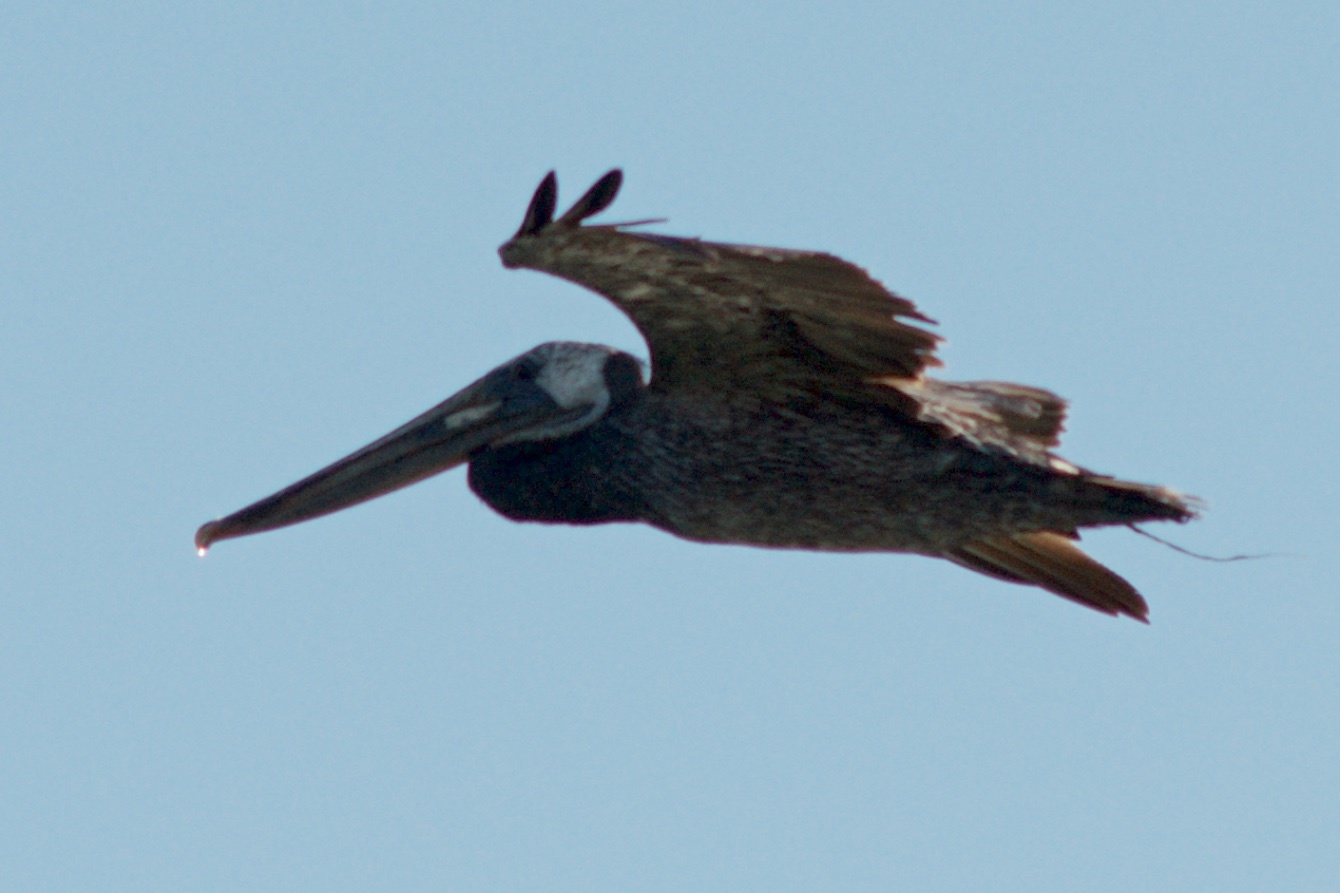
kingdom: Animalia
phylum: Chordata
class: Aves
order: Pelecaniformes
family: Pelecanidae
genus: Pelecanus
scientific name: Pelecanus occidentalis
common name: Brown pelican
